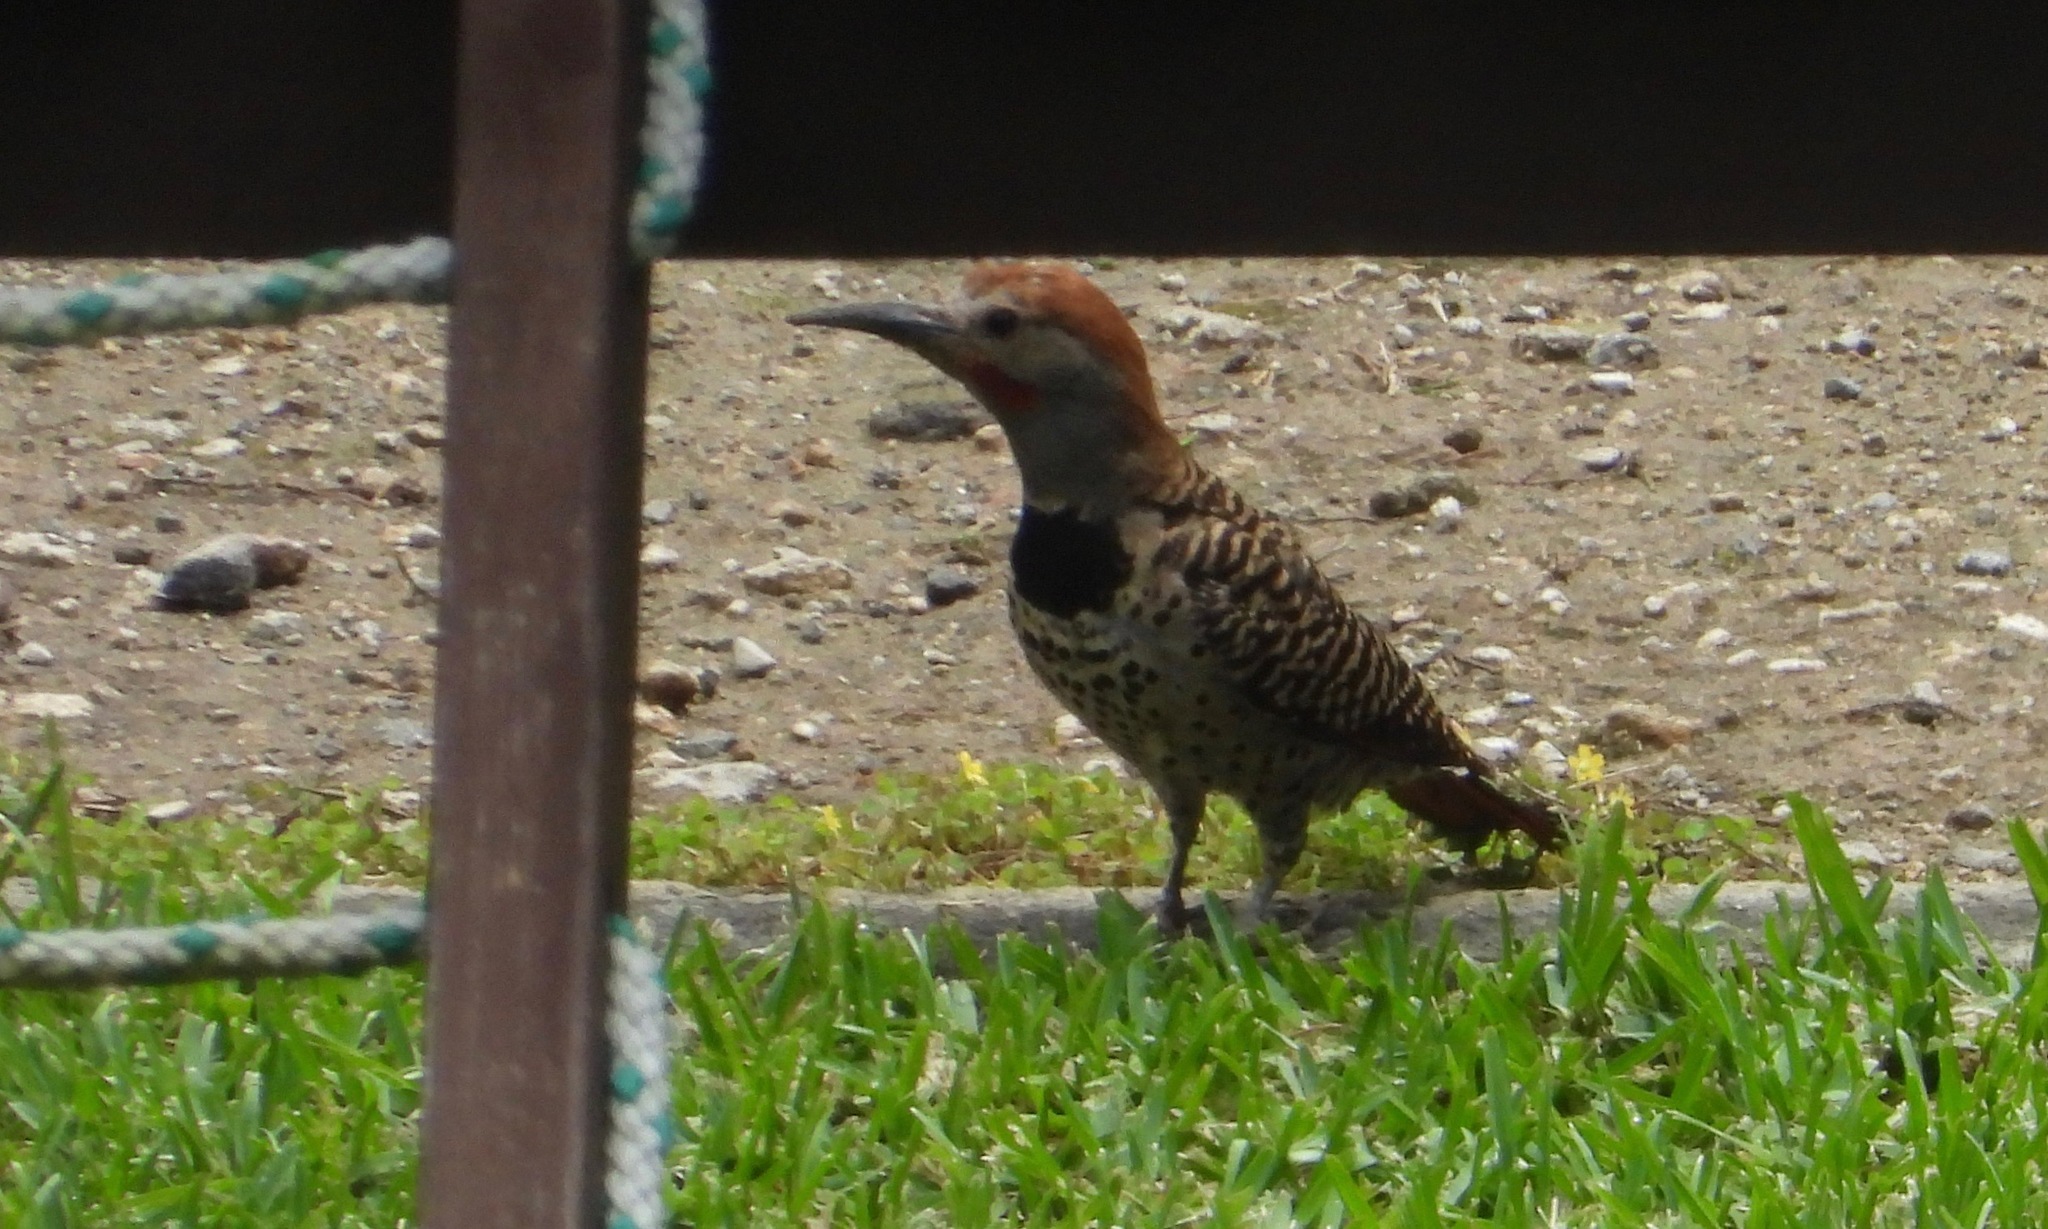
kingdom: Animalia
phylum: Chordata
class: Aves
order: Piciformes
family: Picidae
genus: Colaptes
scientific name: Colaptes auratus
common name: Northern flicker
